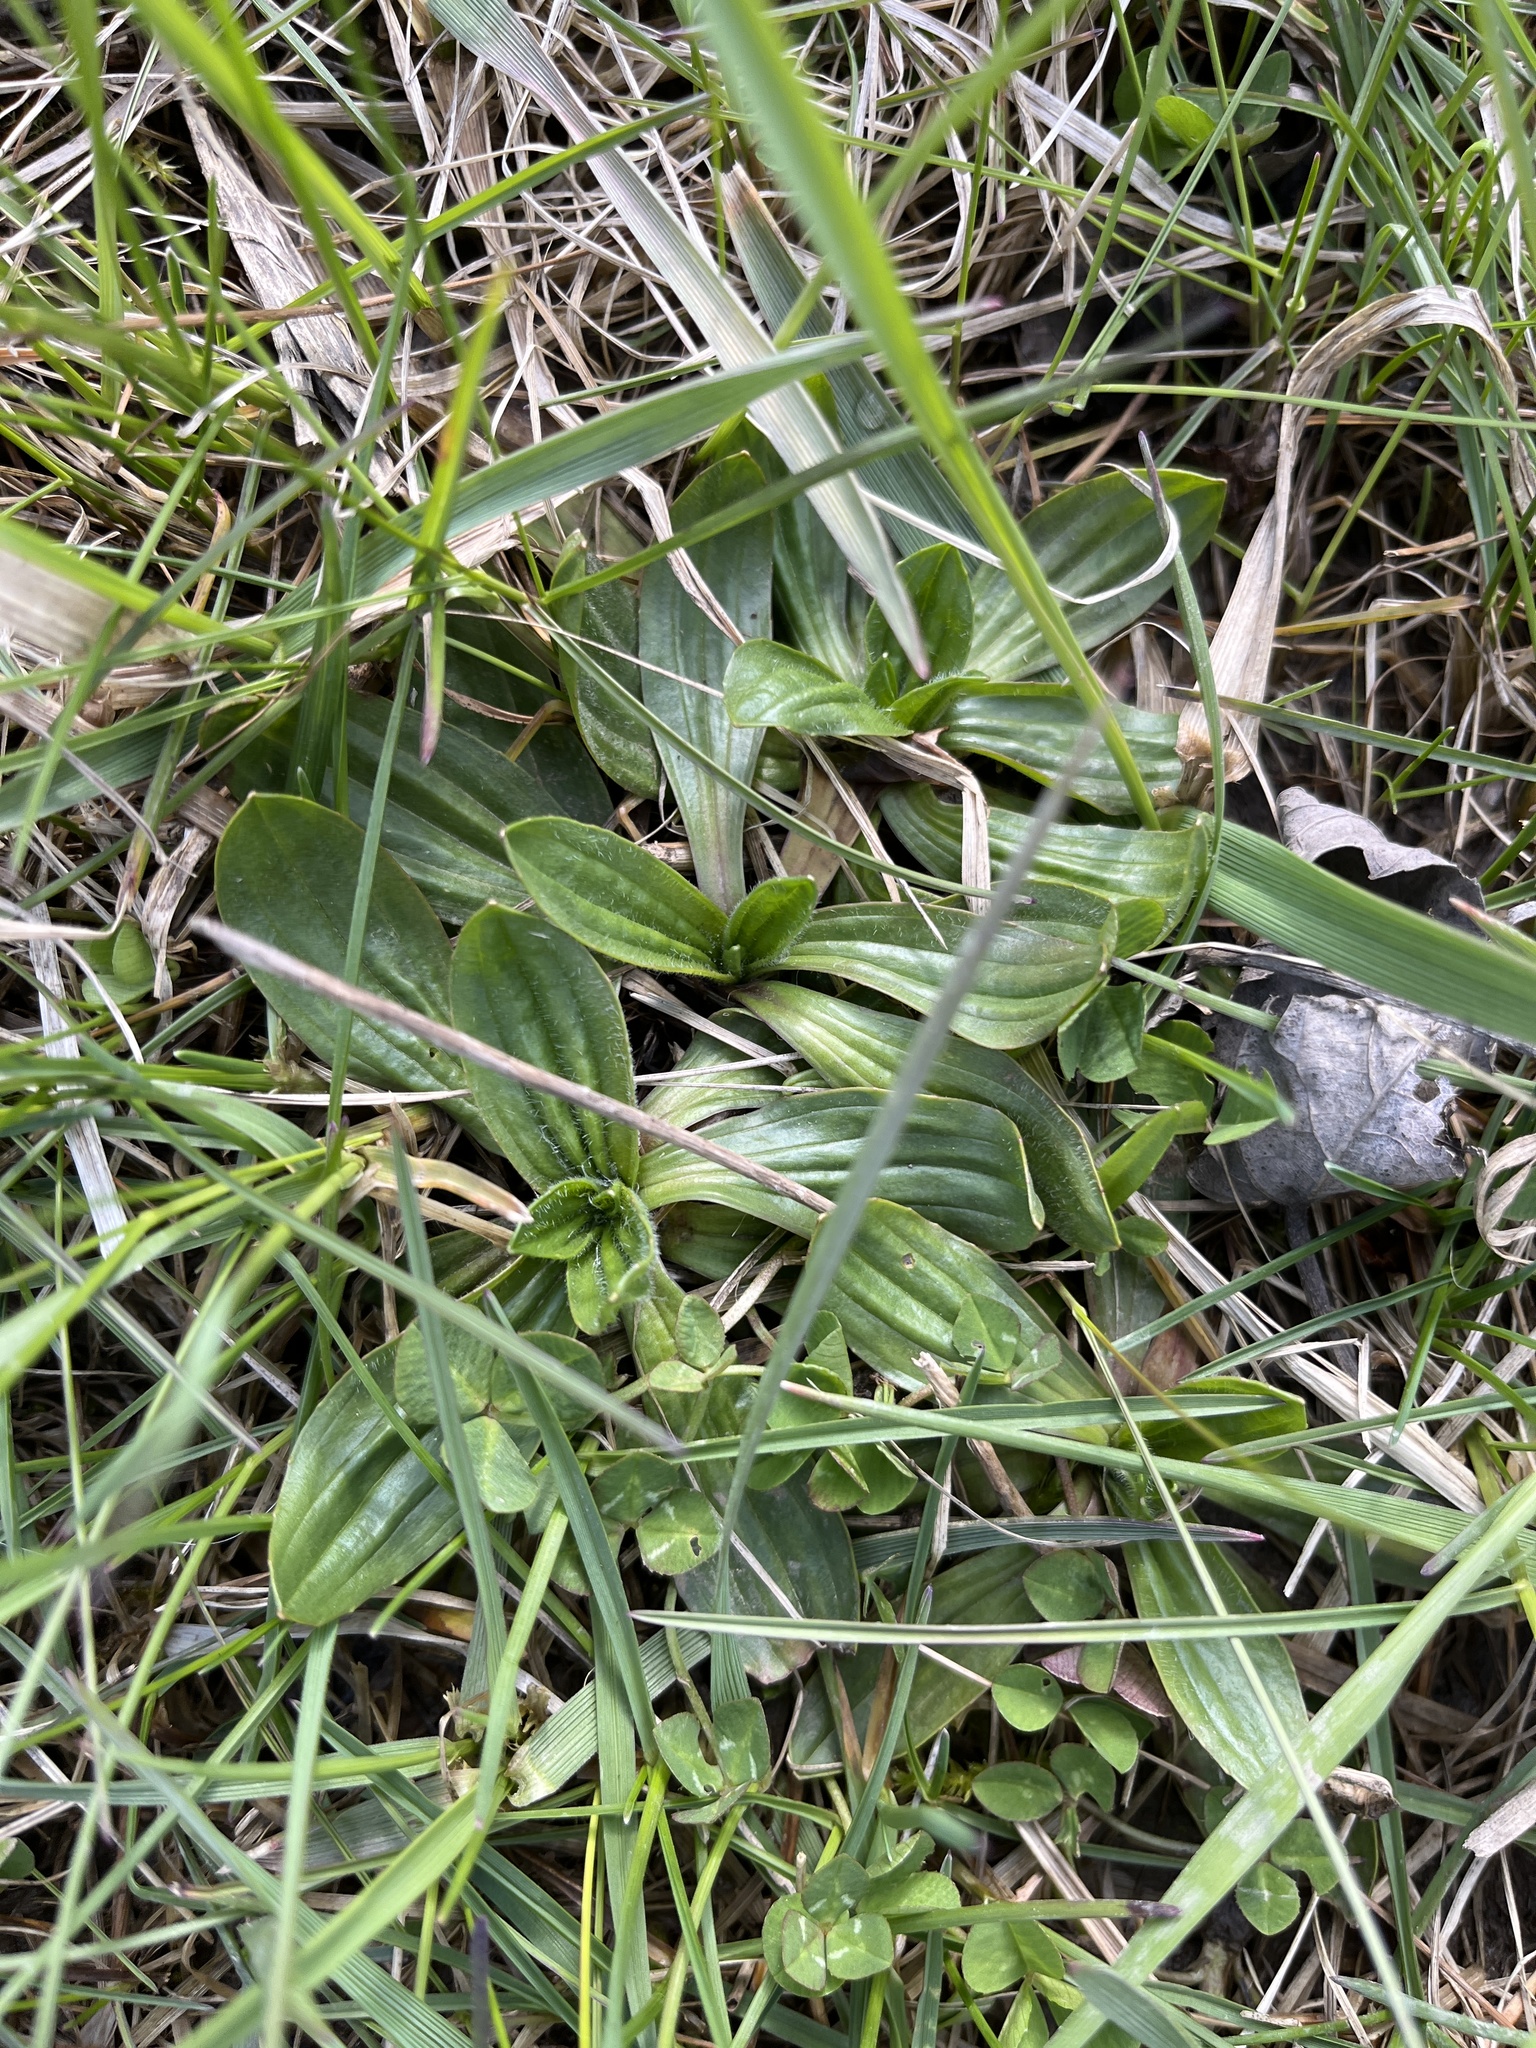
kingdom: Plantae
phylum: Tracheophyta
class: Magnoliopsida
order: Lamiales
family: Plantaginaceae
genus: Plantago
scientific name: Plantago lanceolata
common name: Ribwort plantain
